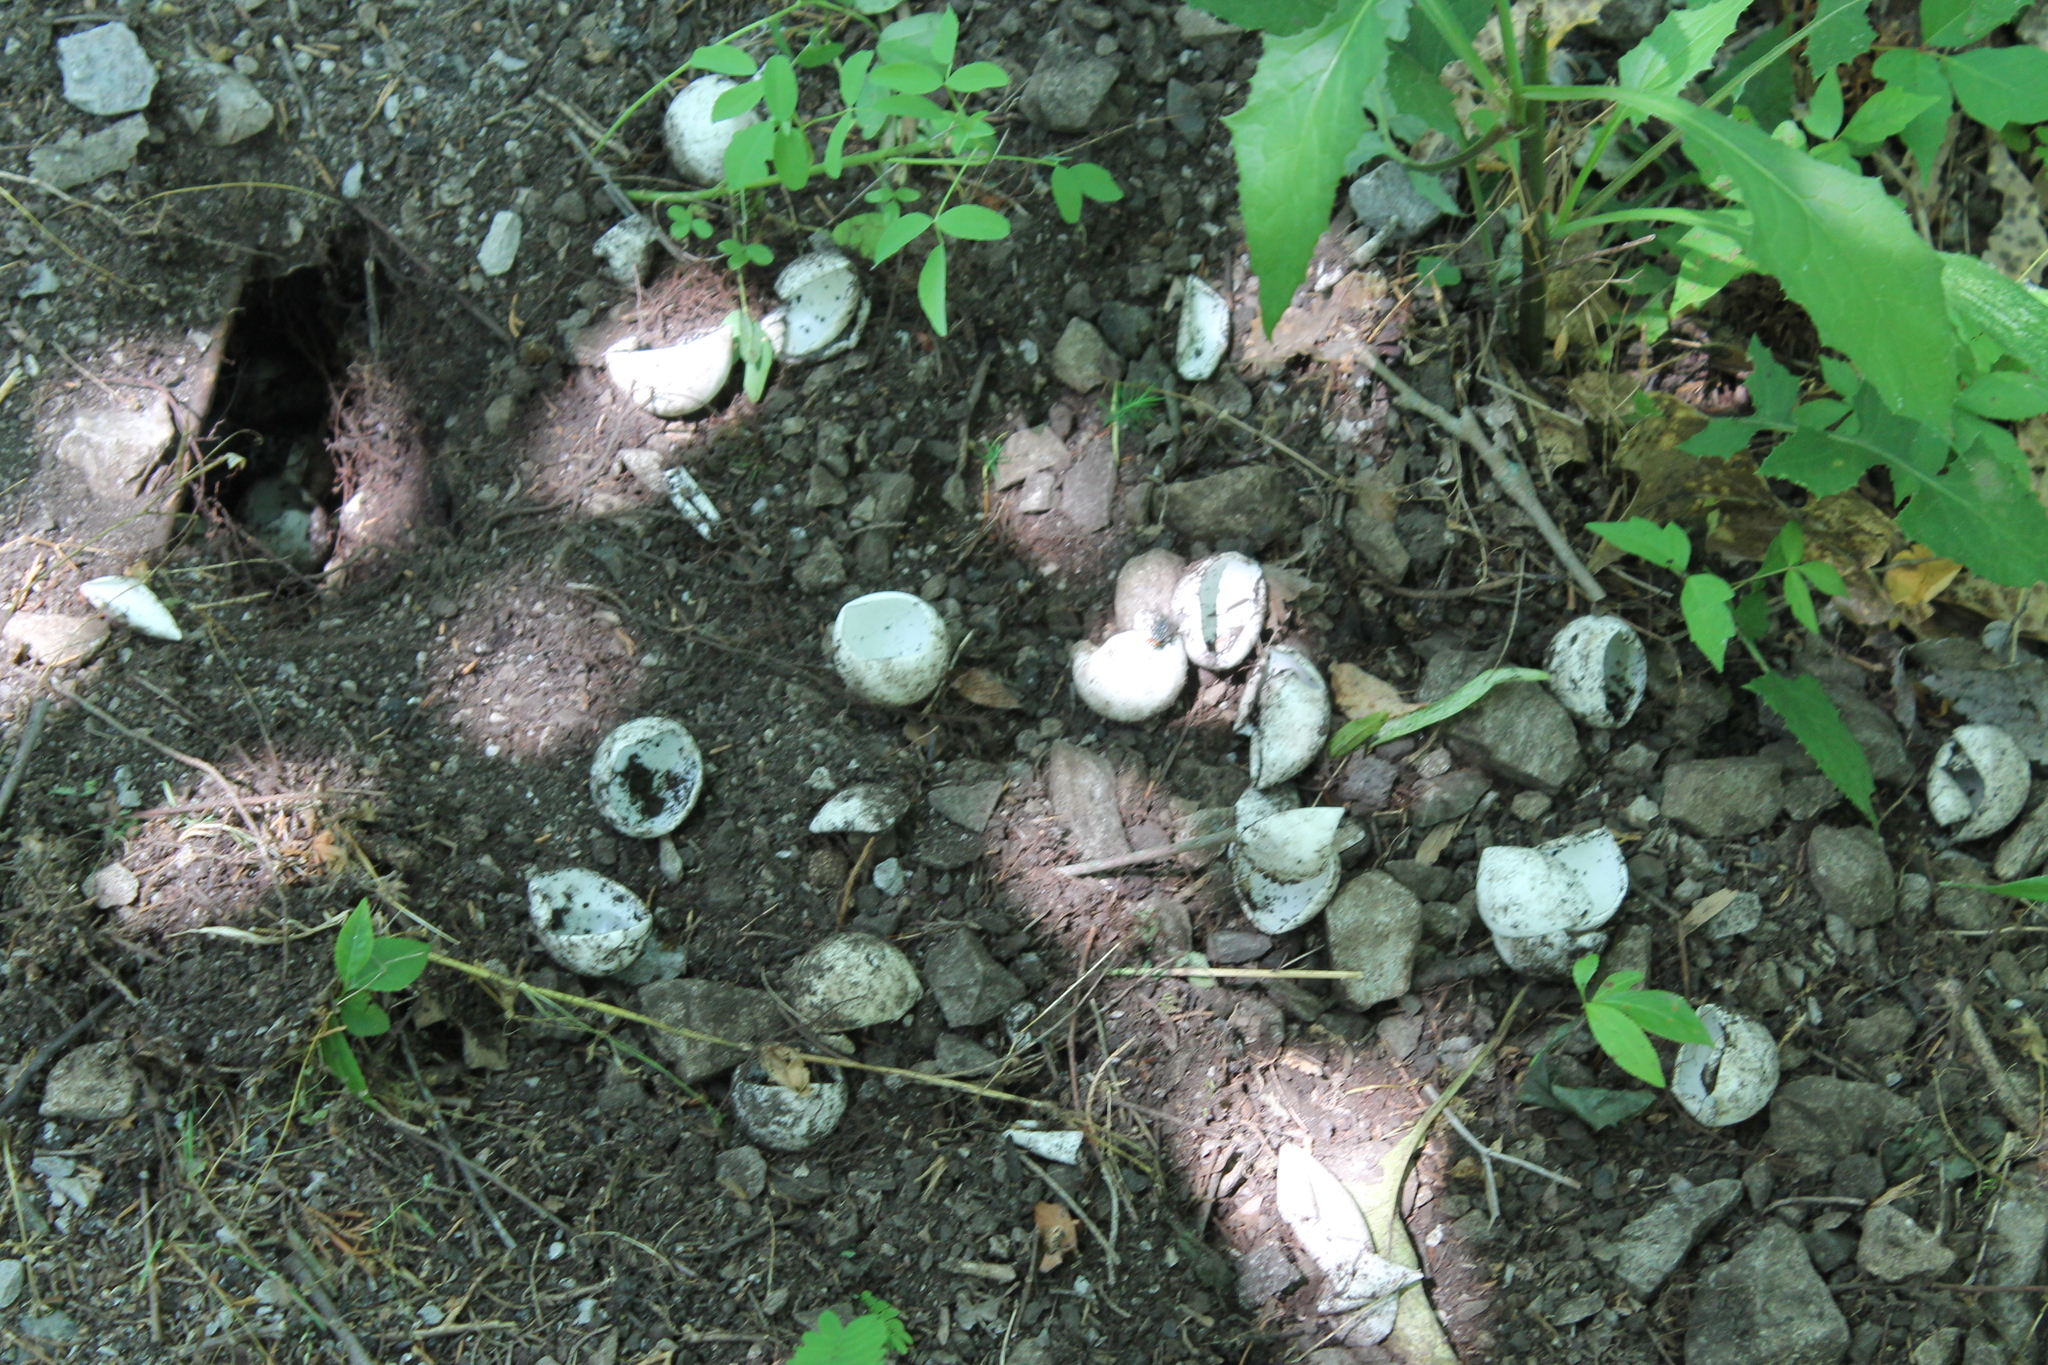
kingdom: Animalia
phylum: Chordata
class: Testudines
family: Chelydridae
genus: Chelydra
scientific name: Chelydra serpentina
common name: Common snapping turtle
